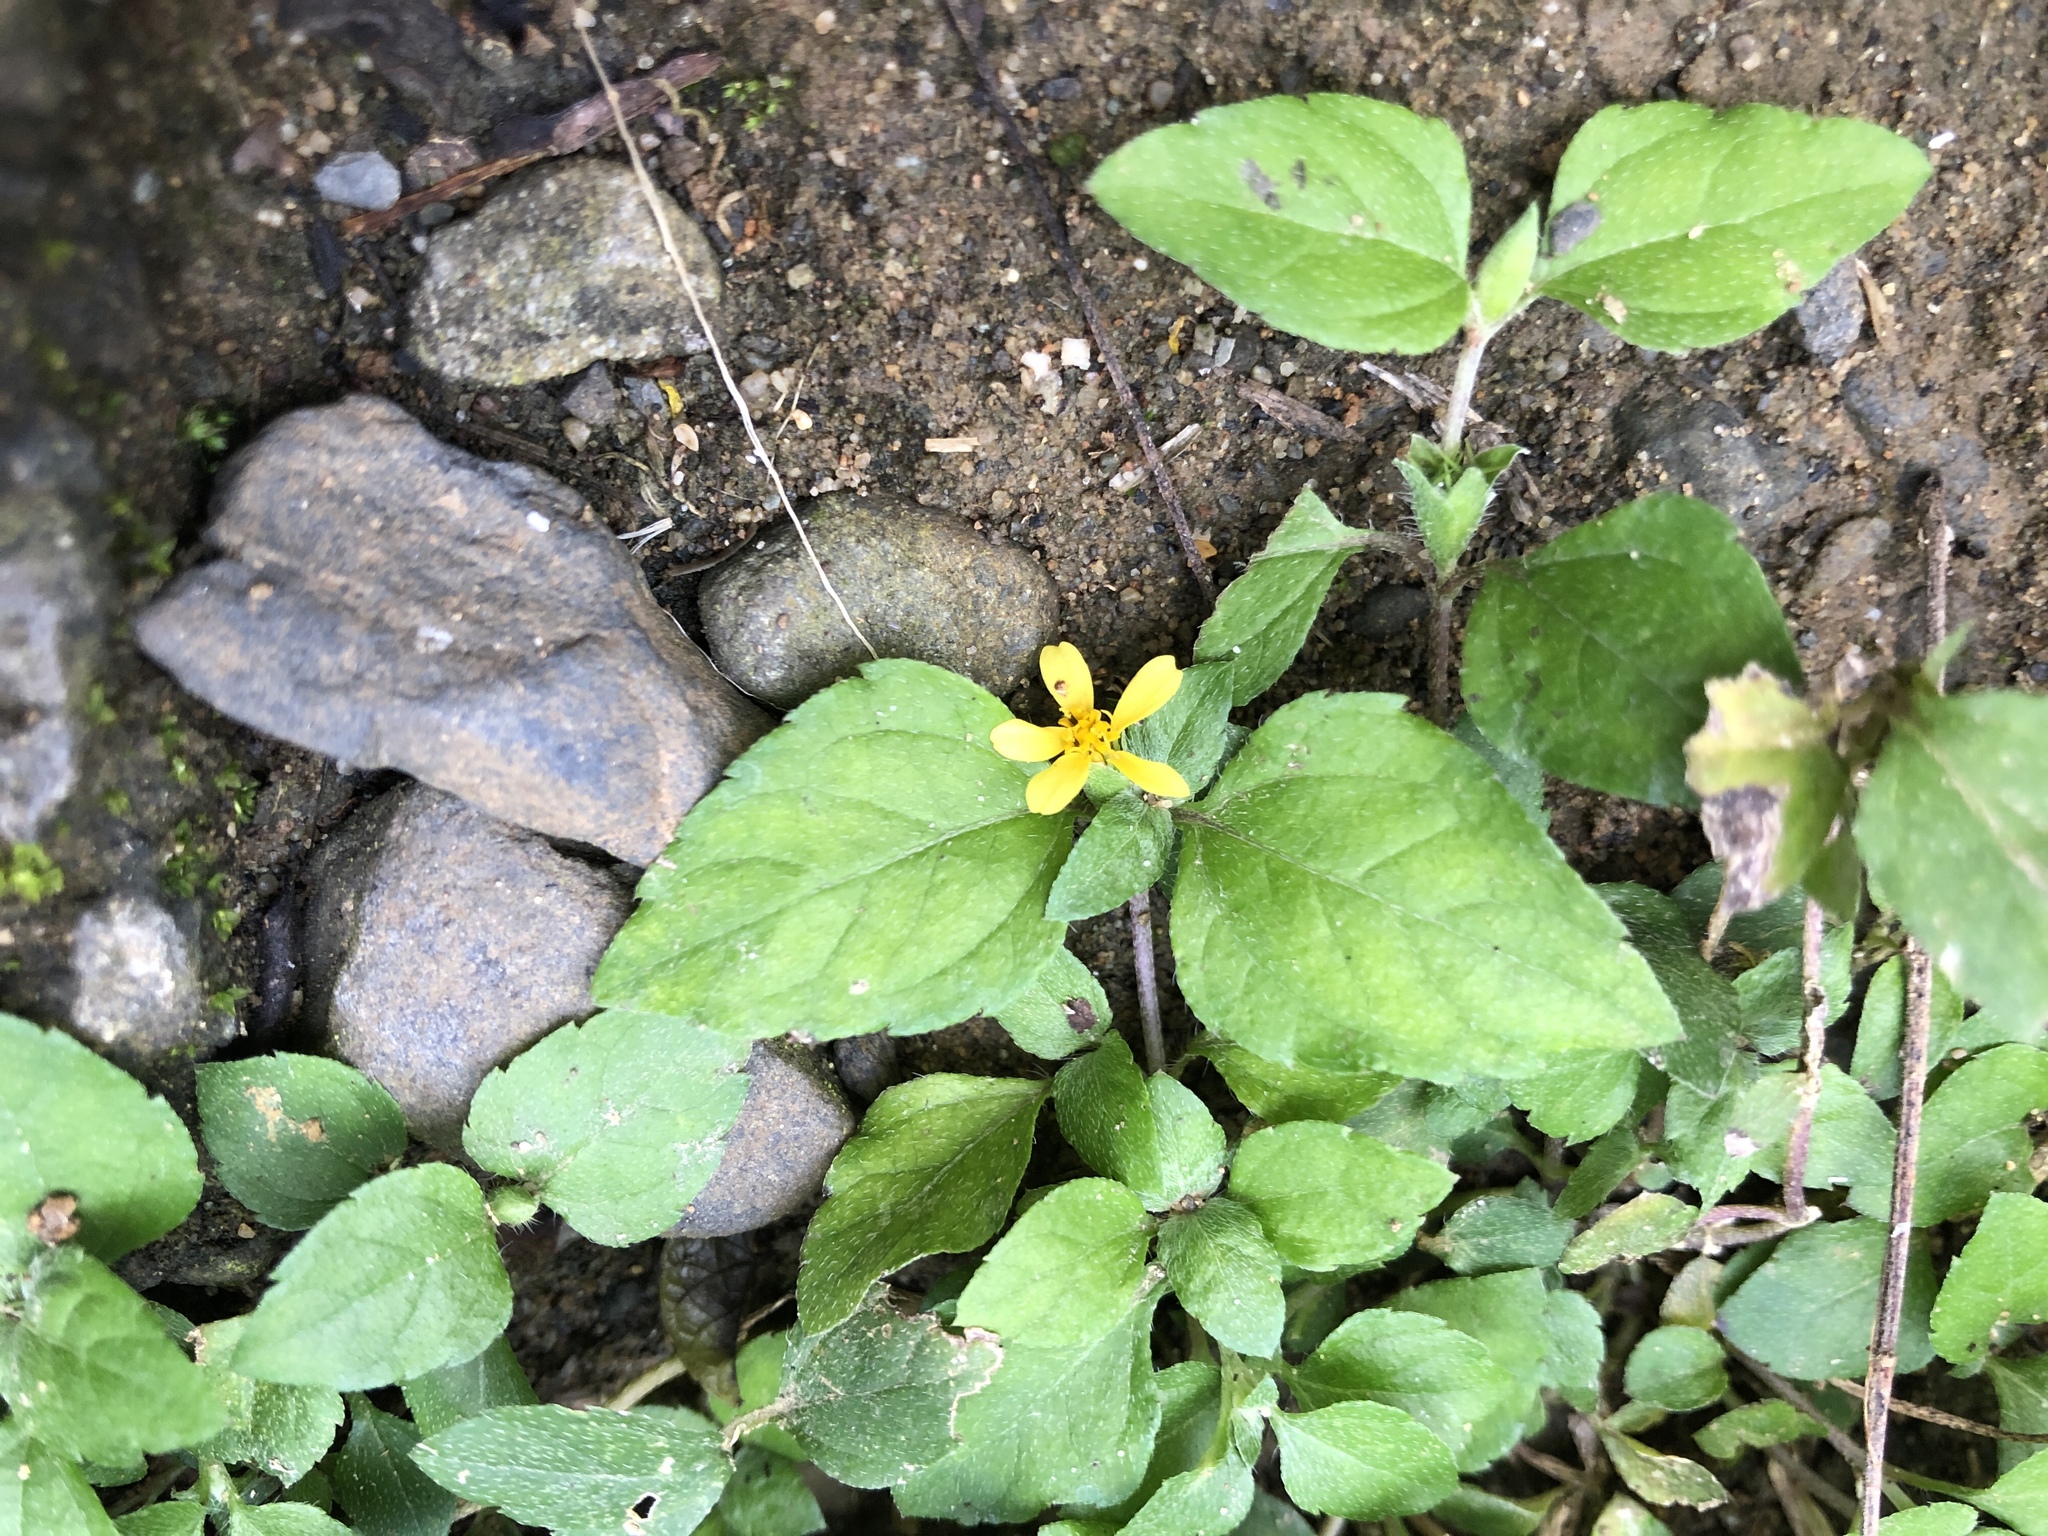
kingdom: Plantae
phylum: Tracheophyta
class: Magnoliopsida
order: Asterales
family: Asteraceae
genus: Calyptocarpus
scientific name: Calyptocarpus vialis
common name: Straggler daisy
